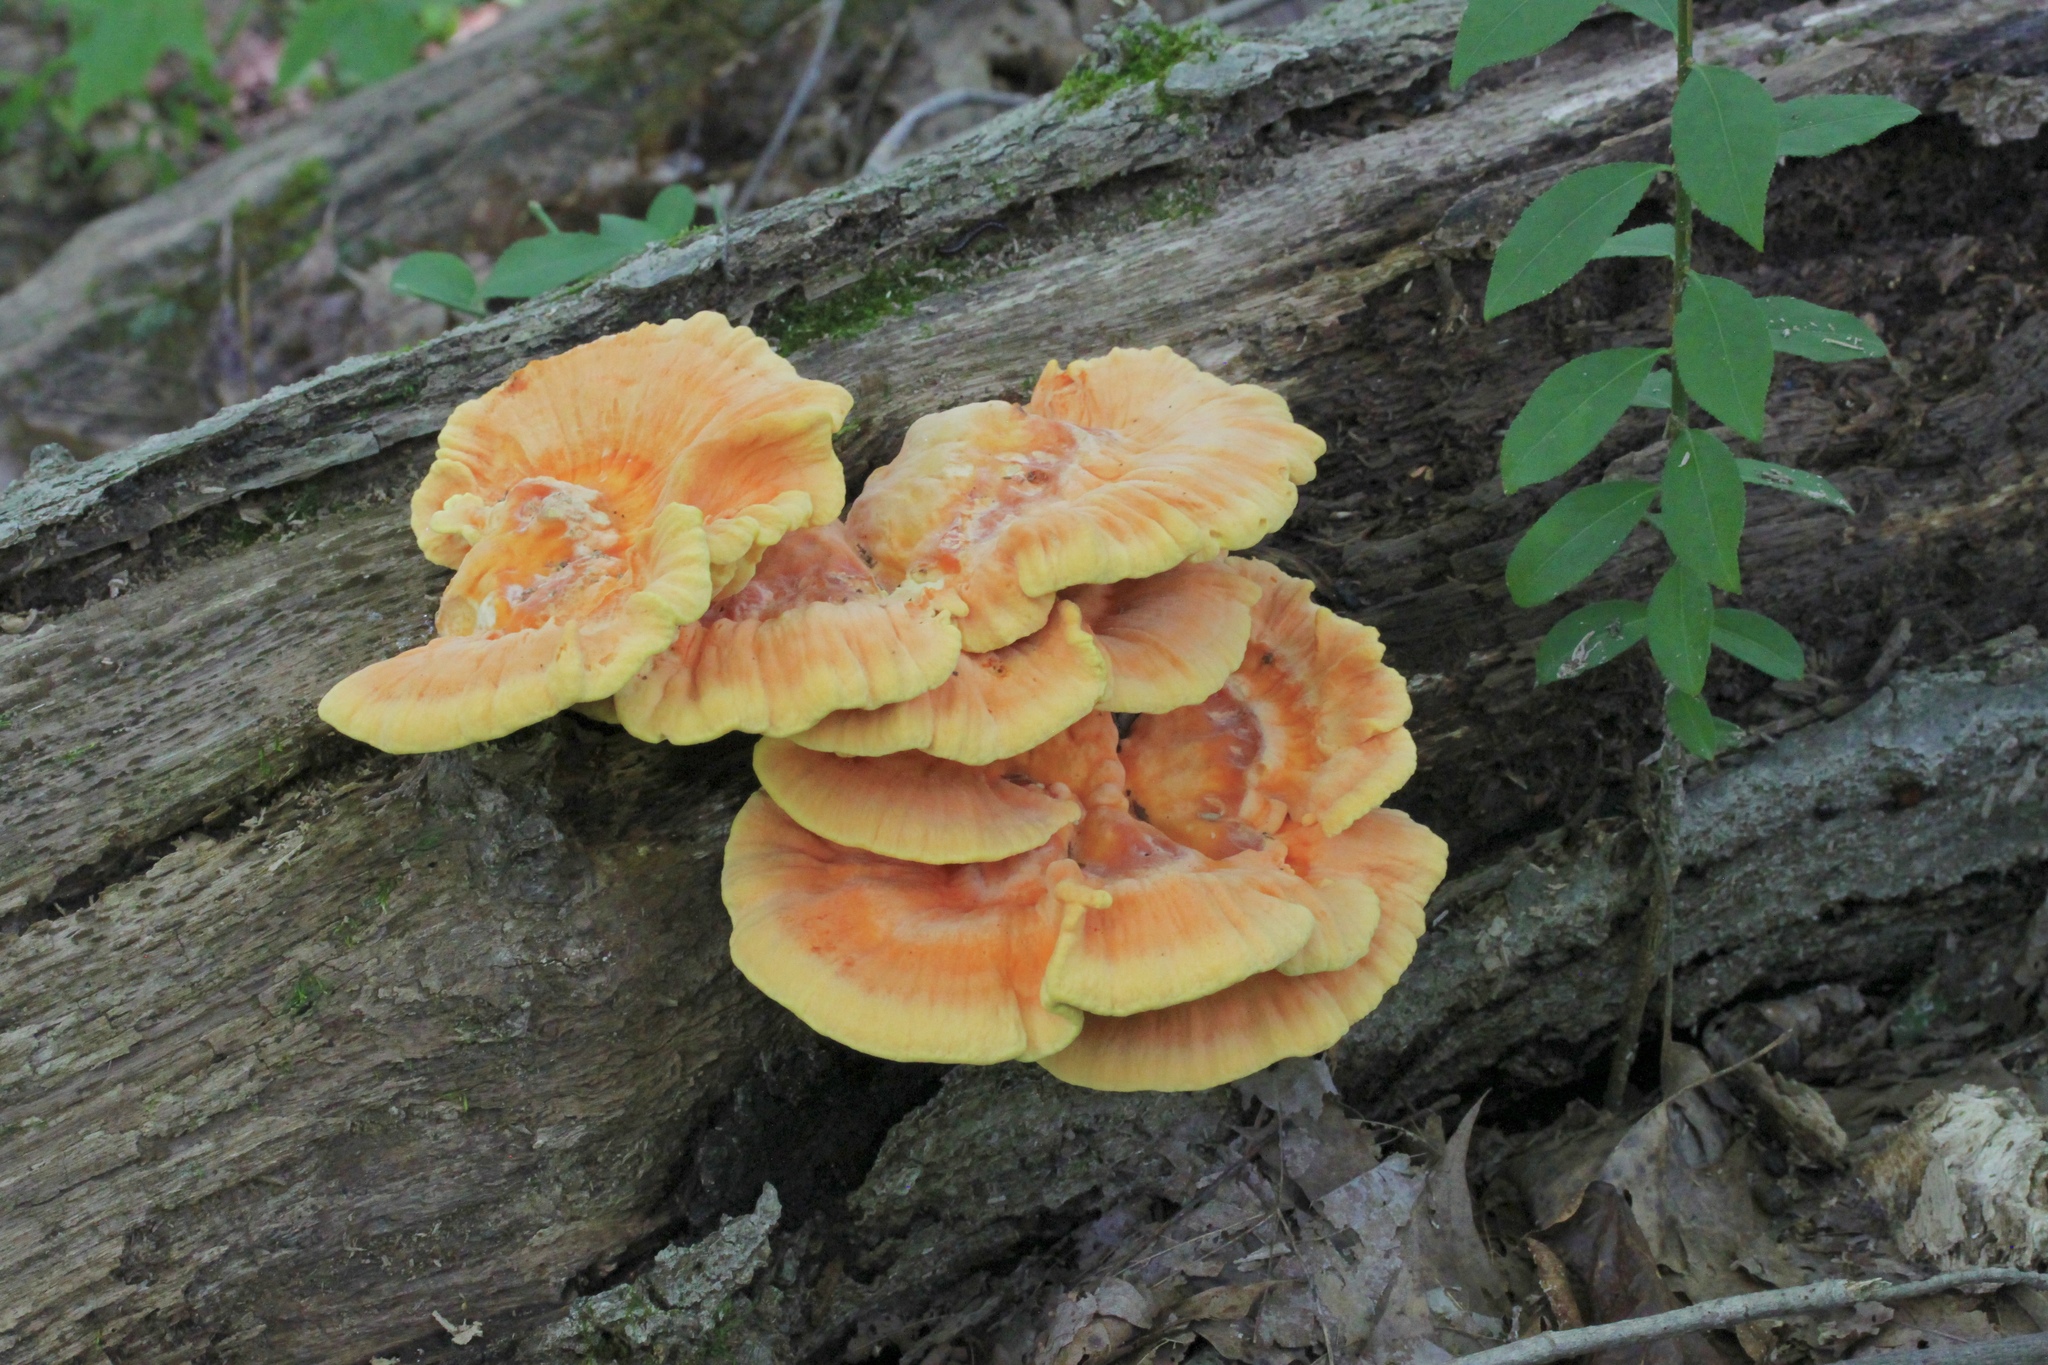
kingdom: Fungi
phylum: Basidiomycota
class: Agaricomycetes
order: Polyporales
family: Laetiporaceae
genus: Laetiporus
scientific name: Laetiporus sulphureus
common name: Chicken of the woods
